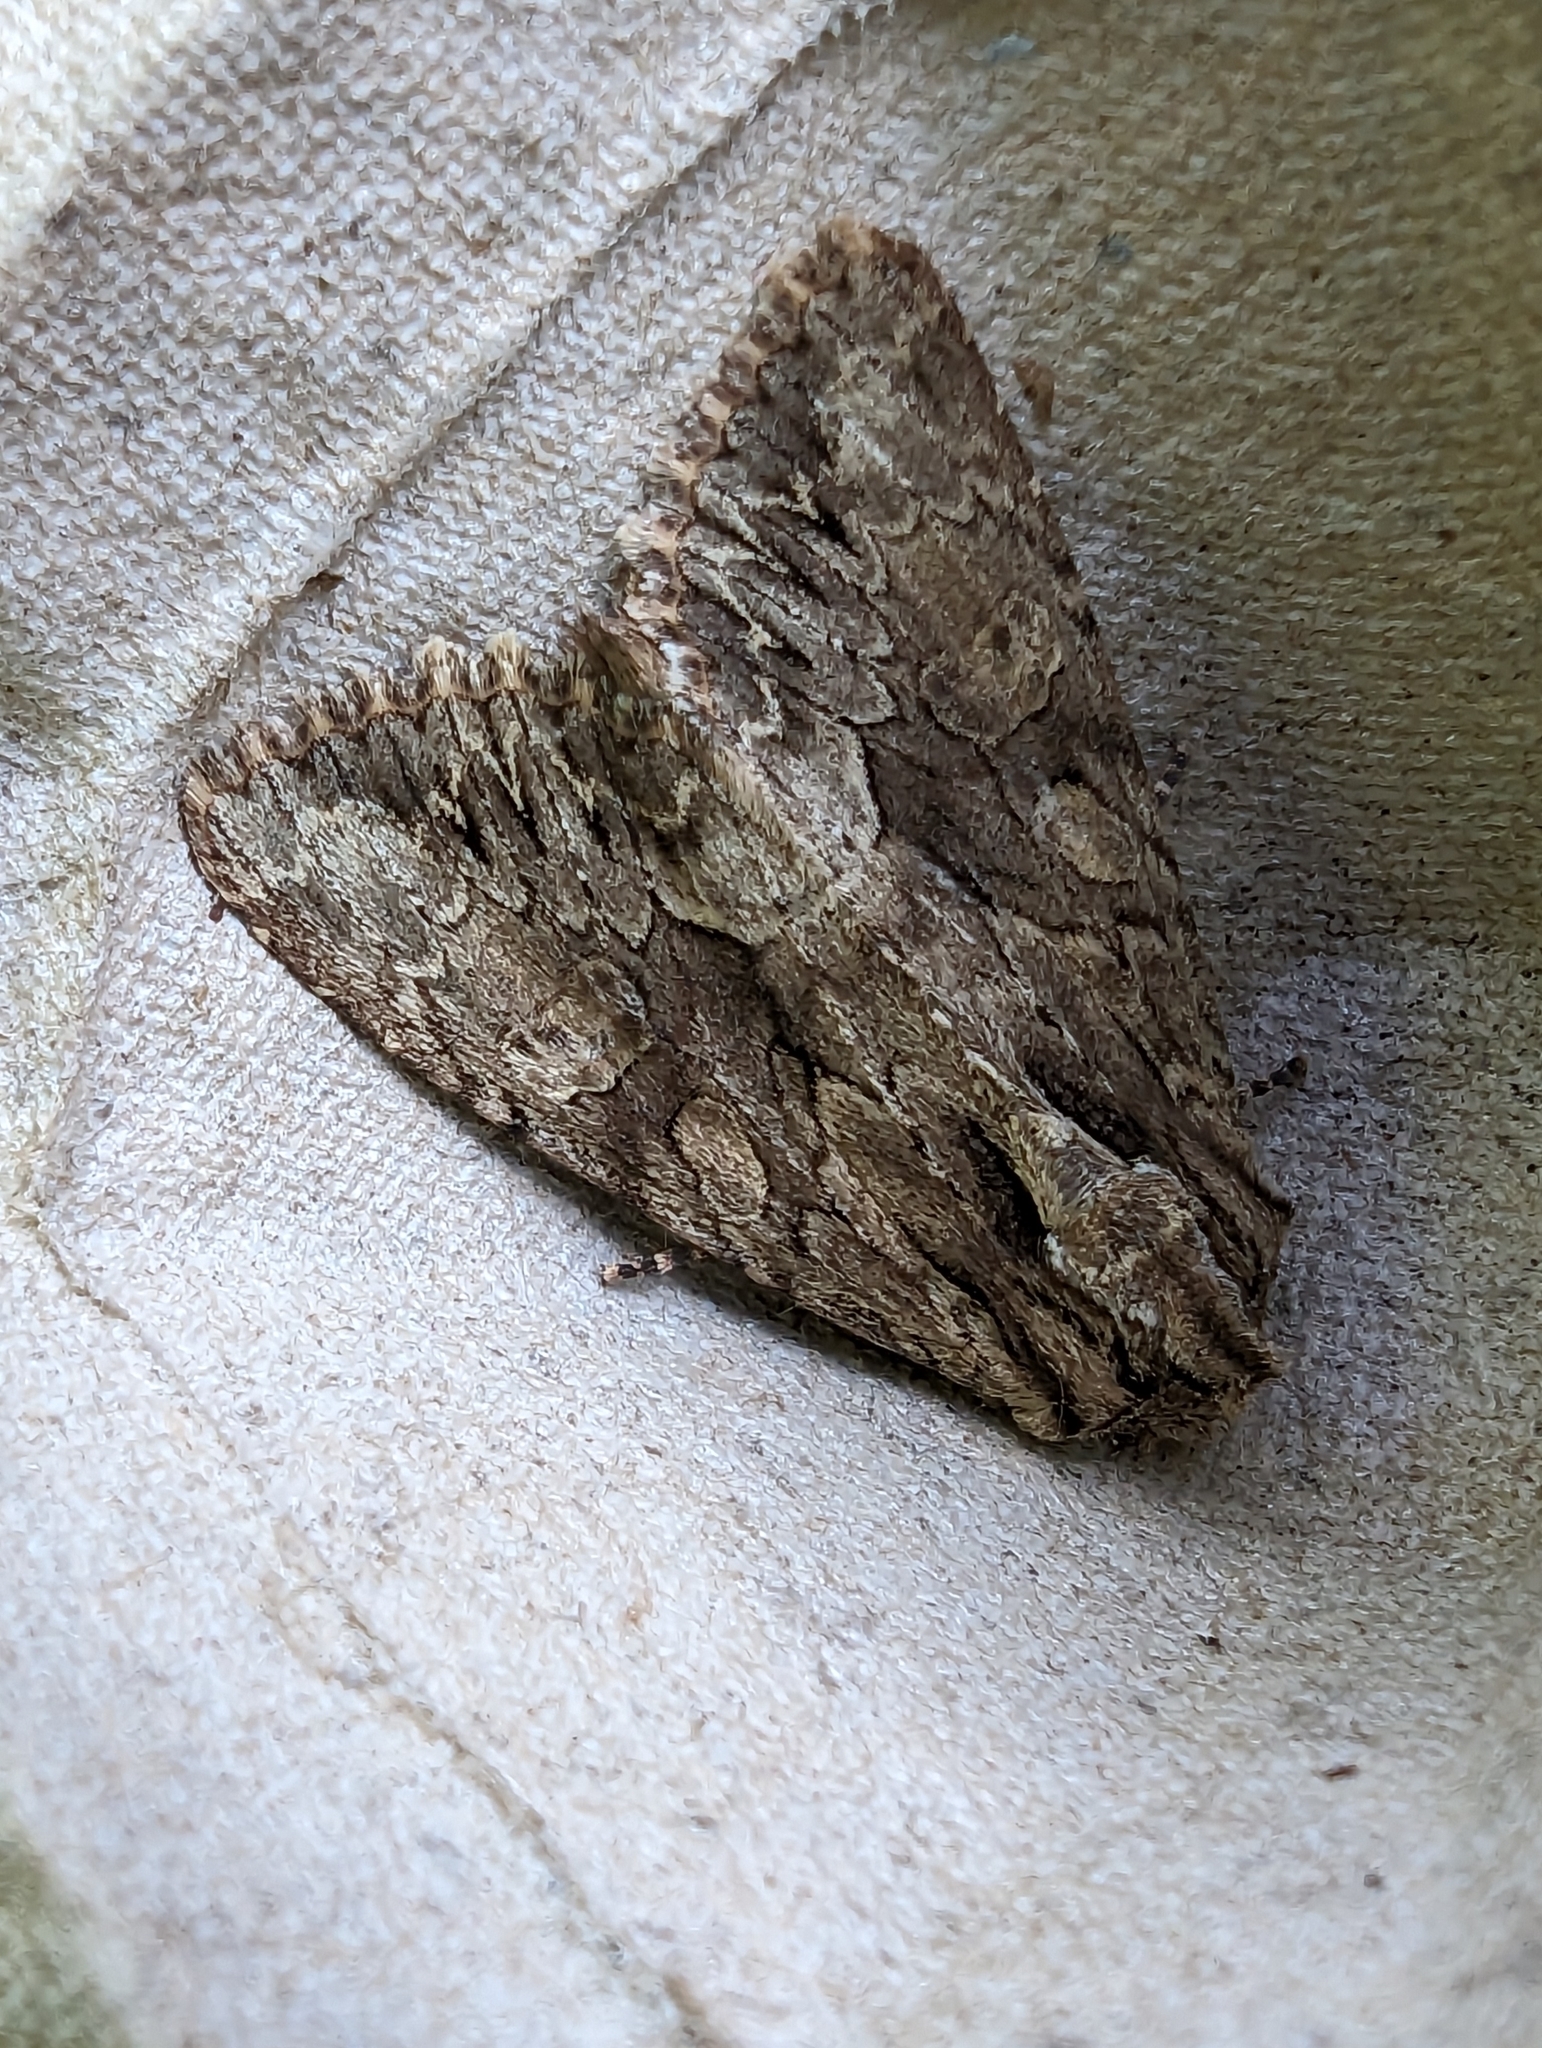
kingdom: Animalia
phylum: Arthropoda
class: Insecta
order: Lepidoptera
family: Noctuidae
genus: Apamea
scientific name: Apamea monoglypha
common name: Dark arches
